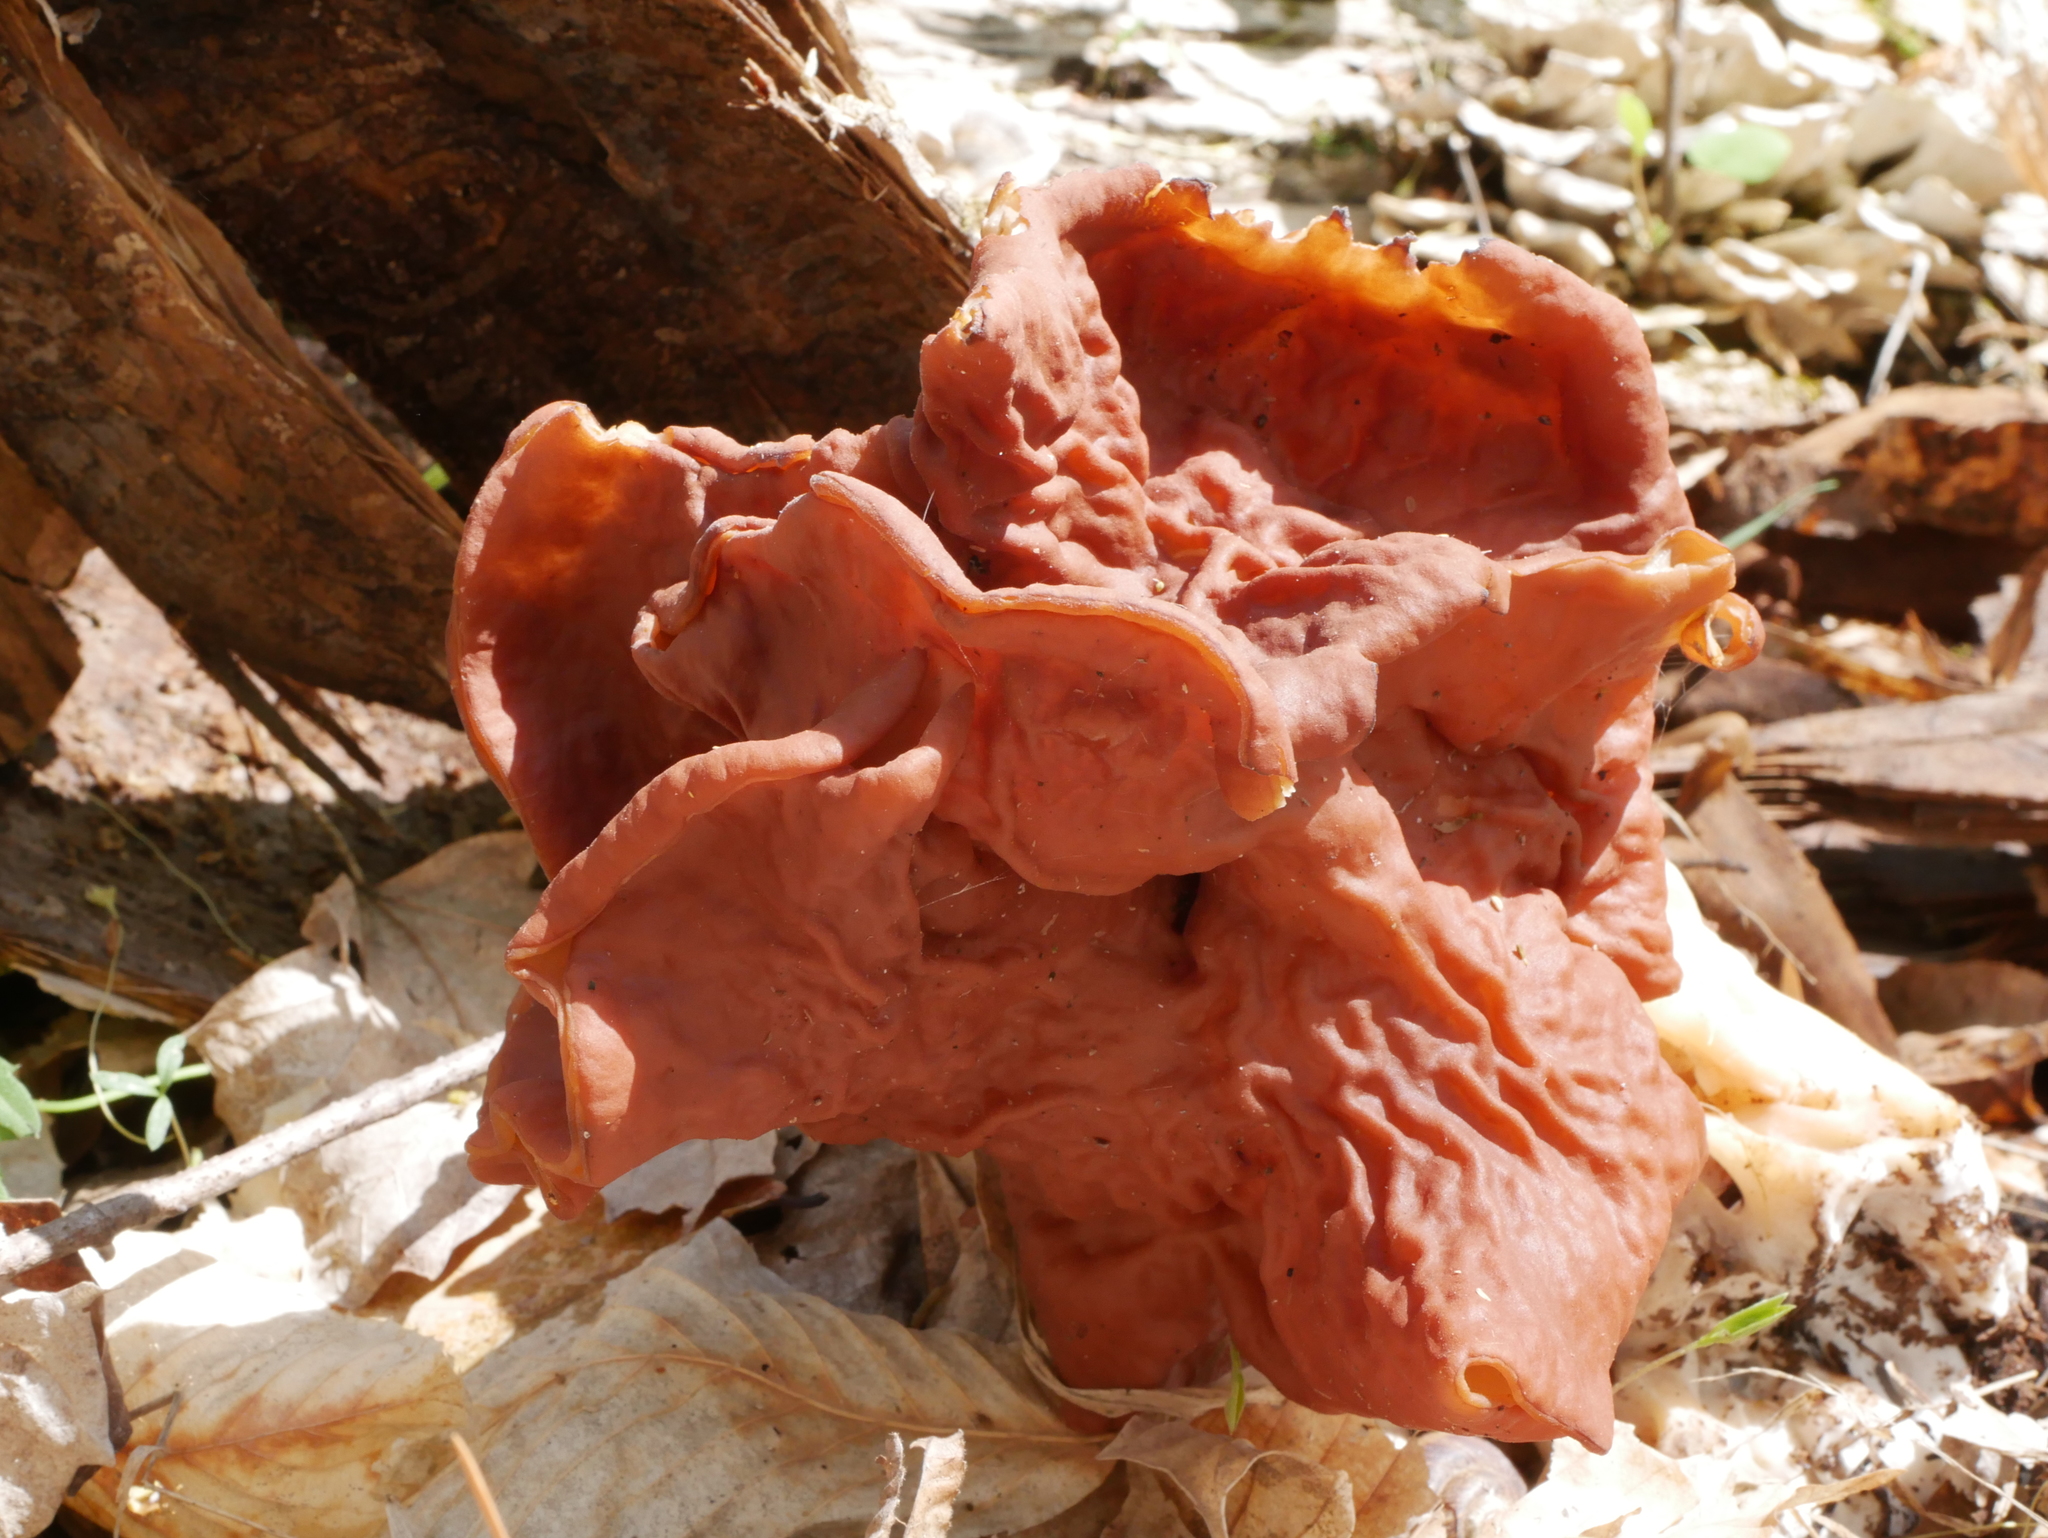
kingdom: Fungi
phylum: Ascomycota
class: Pezizomycetes
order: Pezizales
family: Discinaceae
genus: Discina
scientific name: Discina brunnea
